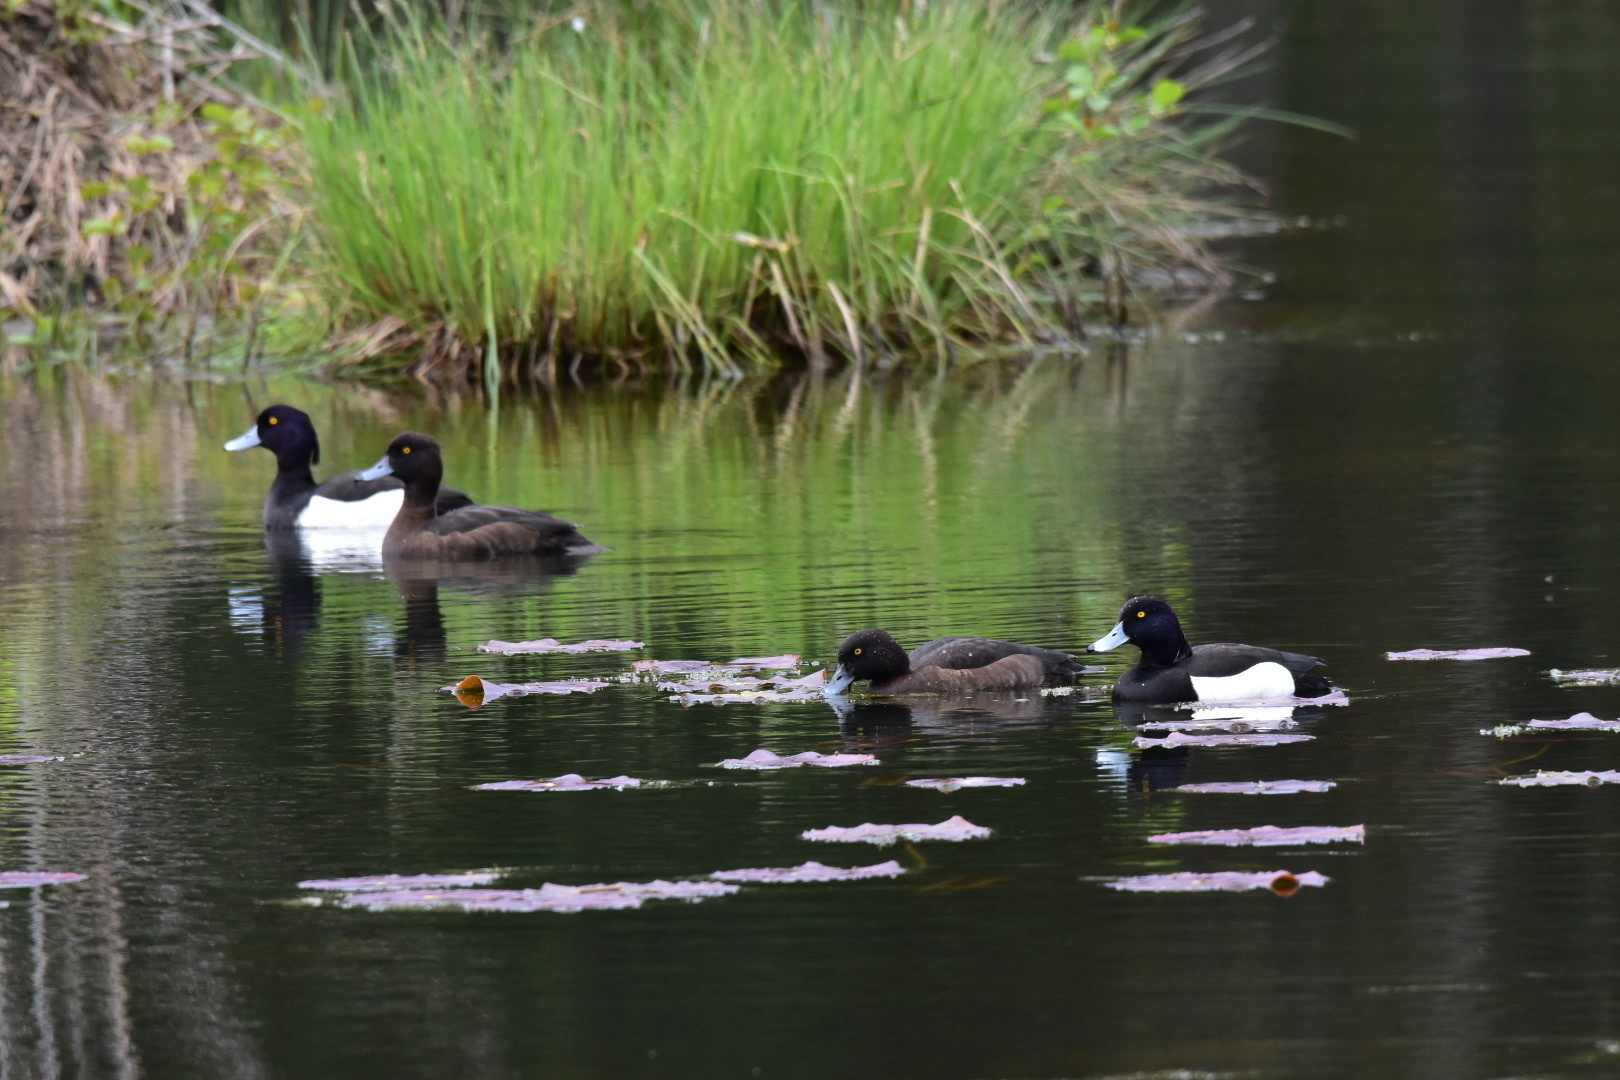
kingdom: Animalia
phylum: Chordata
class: Aves
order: Anseriformes
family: Anatidae
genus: Aythya
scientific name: Aythya fuligula
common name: Tufted duck
